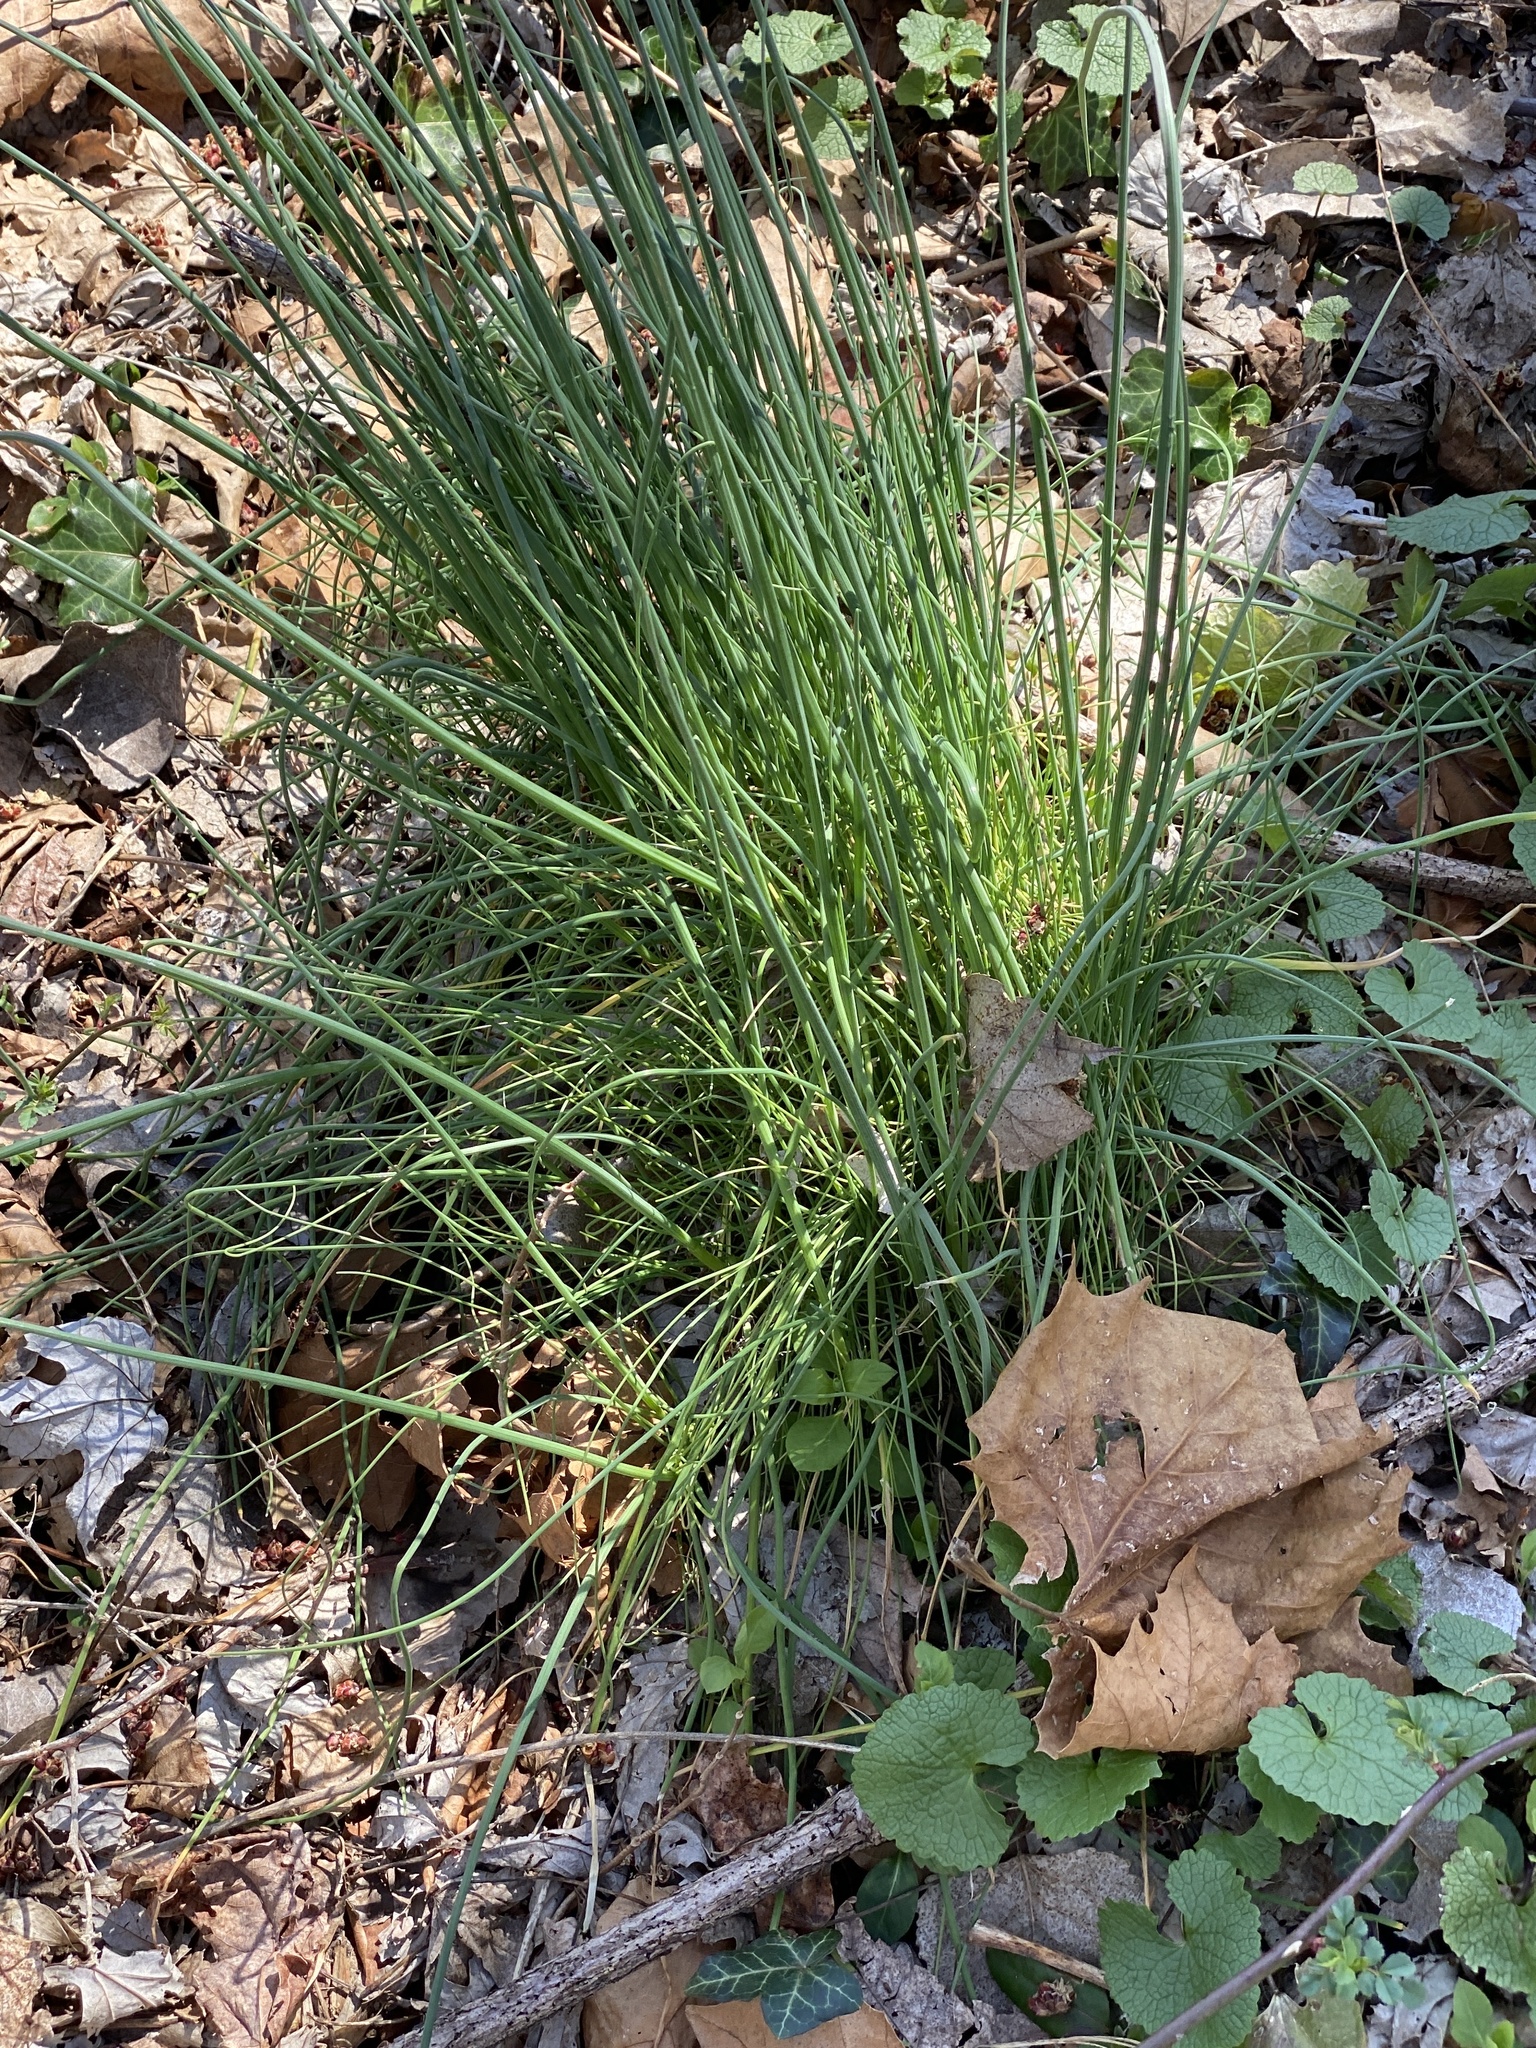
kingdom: Plantae
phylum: Tracheophyta
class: Liliopsida
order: Asparagales
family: Amaryllidaceae
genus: Allium
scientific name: Allium vineale
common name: Crow garlic
